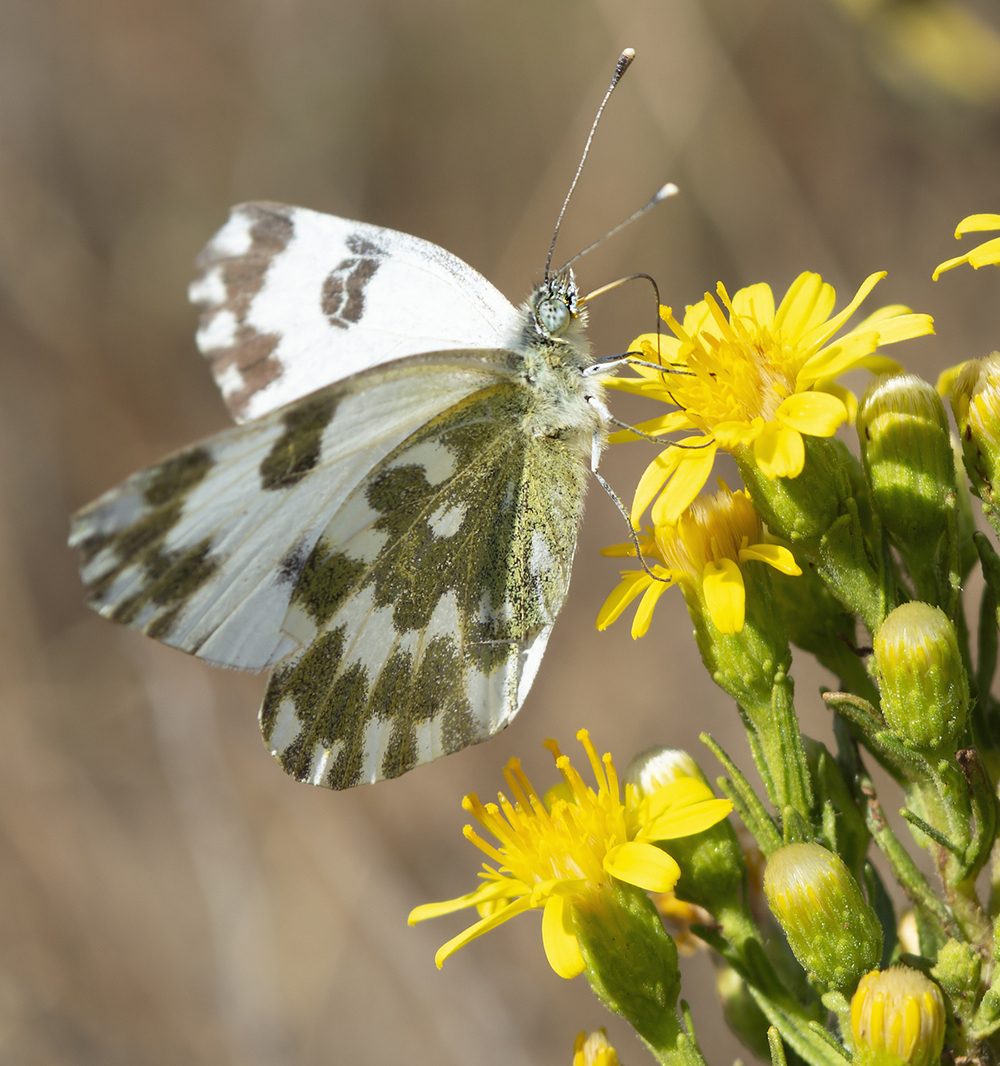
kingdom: Animalia
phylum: Arthropoda
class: Insecta
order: Lepidoptera
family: Pieridae
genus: Pontia
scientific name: Pontia edusa
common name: Eastern bath white
